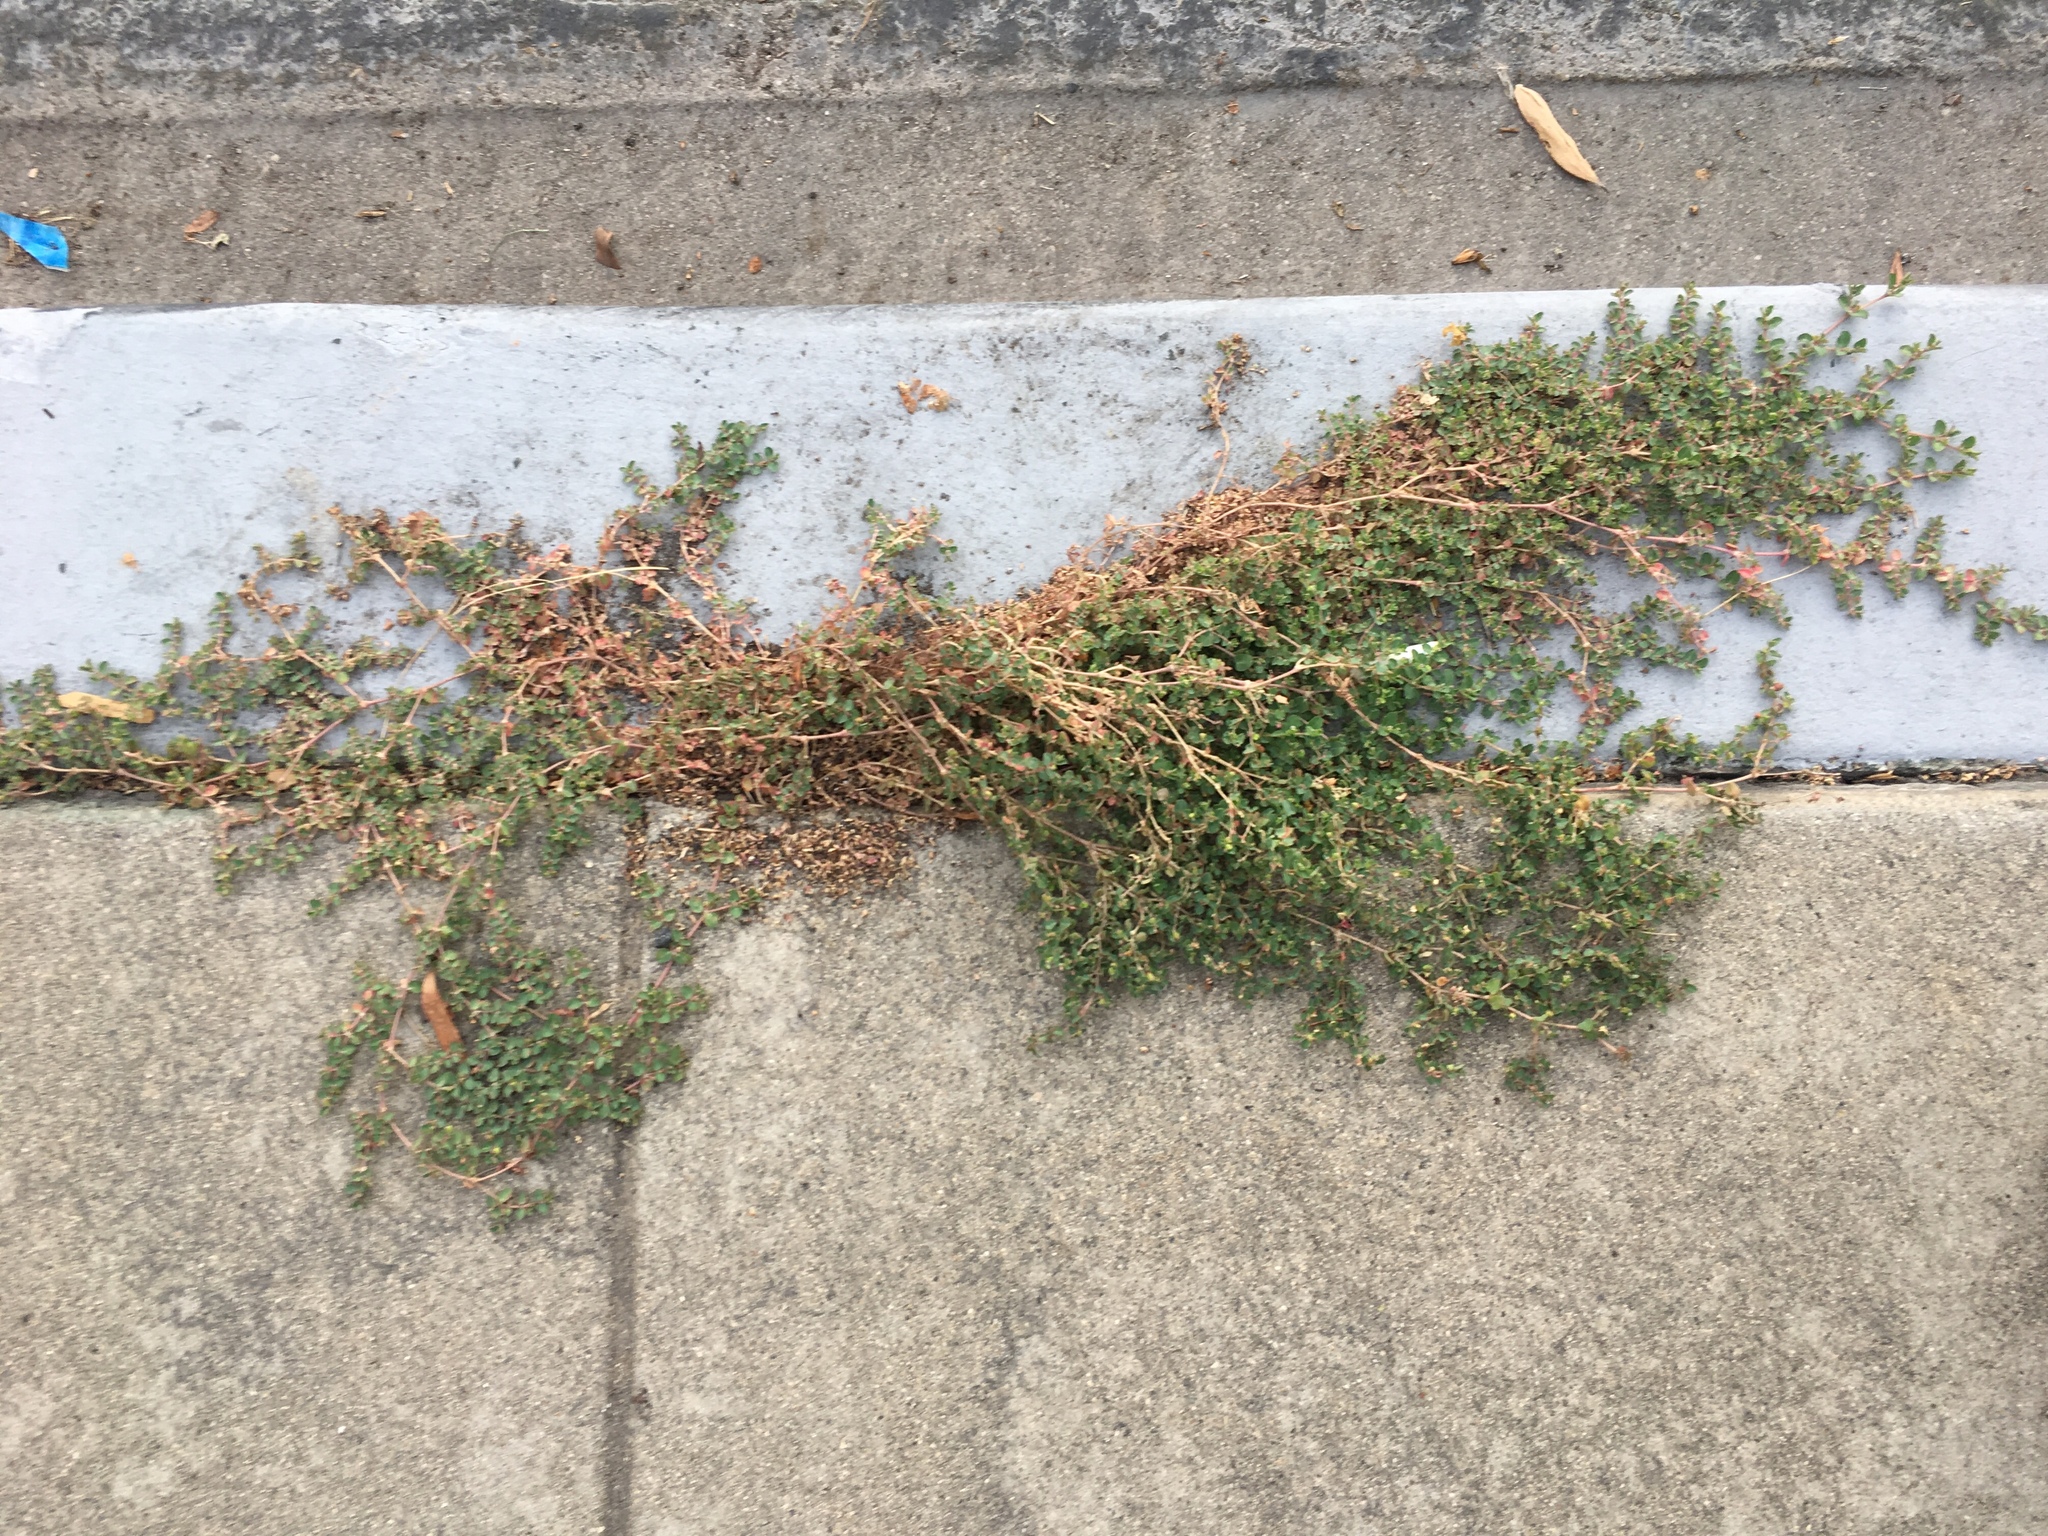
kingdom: Plantae
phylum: Tracheophyta
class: Magnoliopsida
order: Malpighiales
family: Euphorbiaceae
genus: Euphorbia
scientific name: Euphorbia serpens
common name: Matted sandmat
